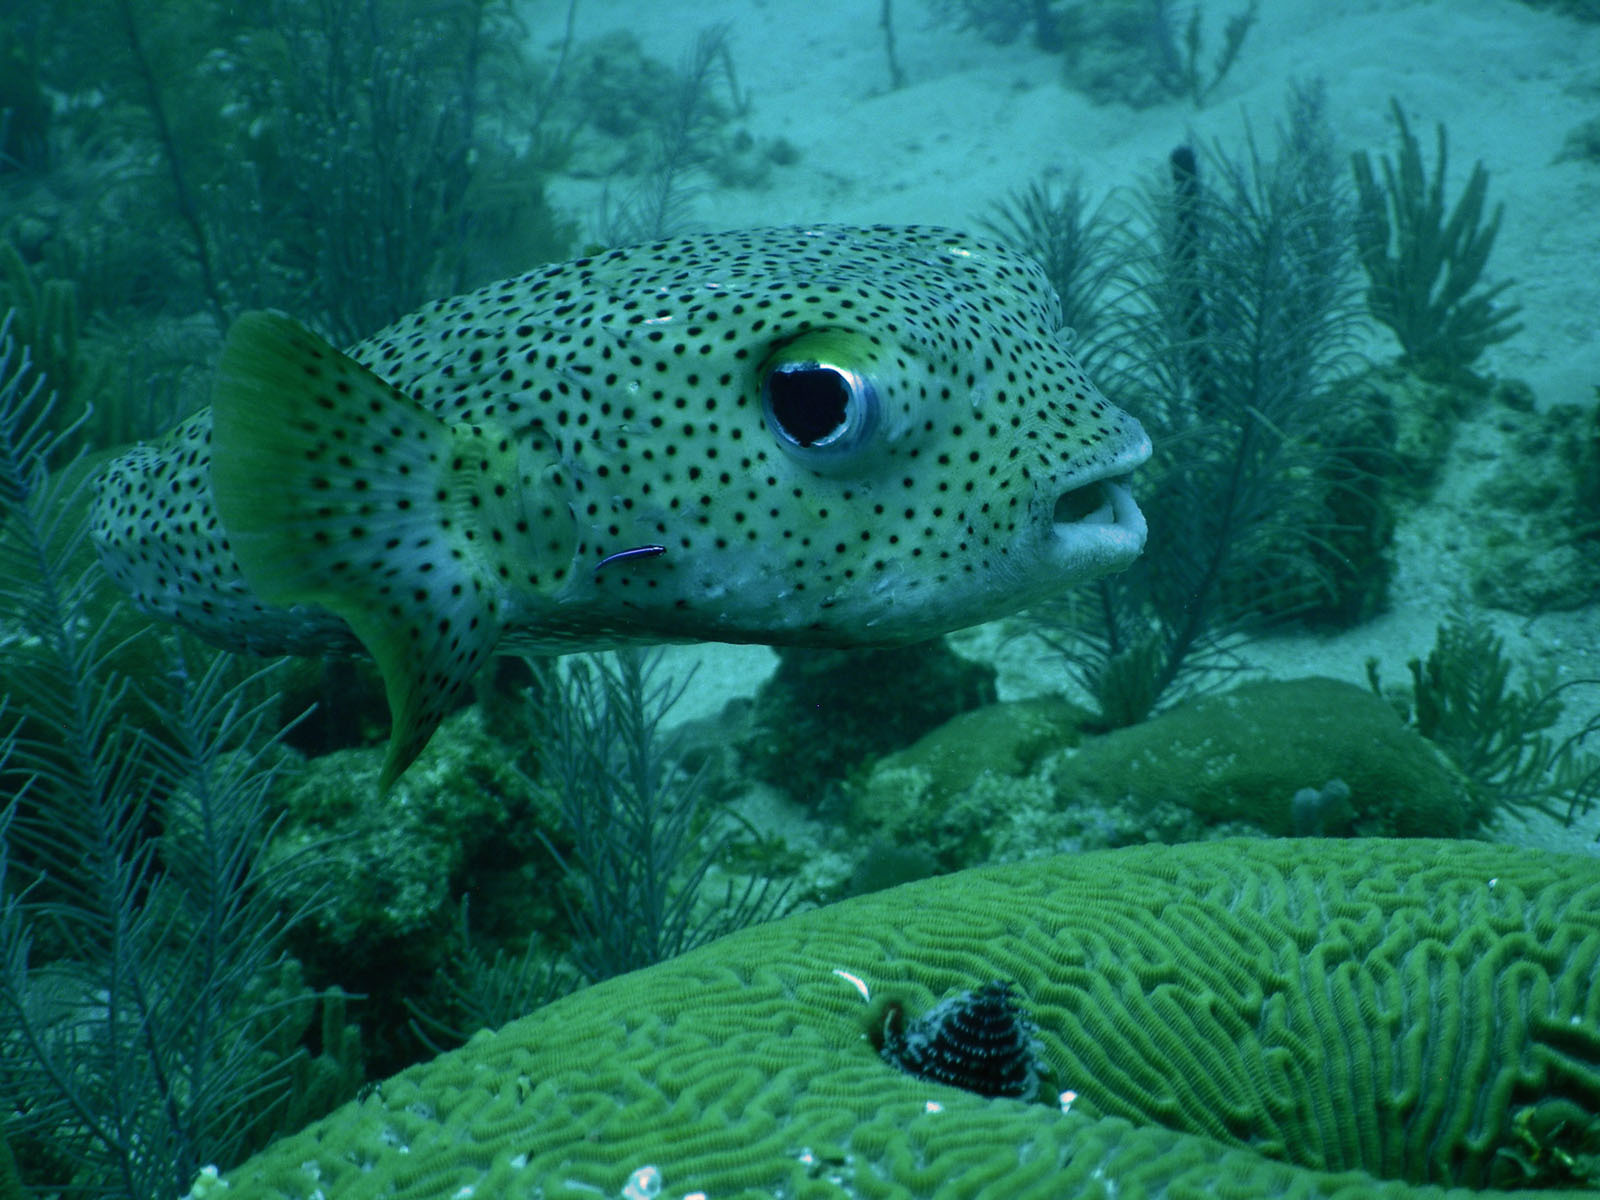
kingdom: Animalia
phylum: Chordata
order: Tetraodontiformes
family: Diodontidae
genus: Diodon
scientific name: Diodon hystrix
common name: Giant porcupinefish
